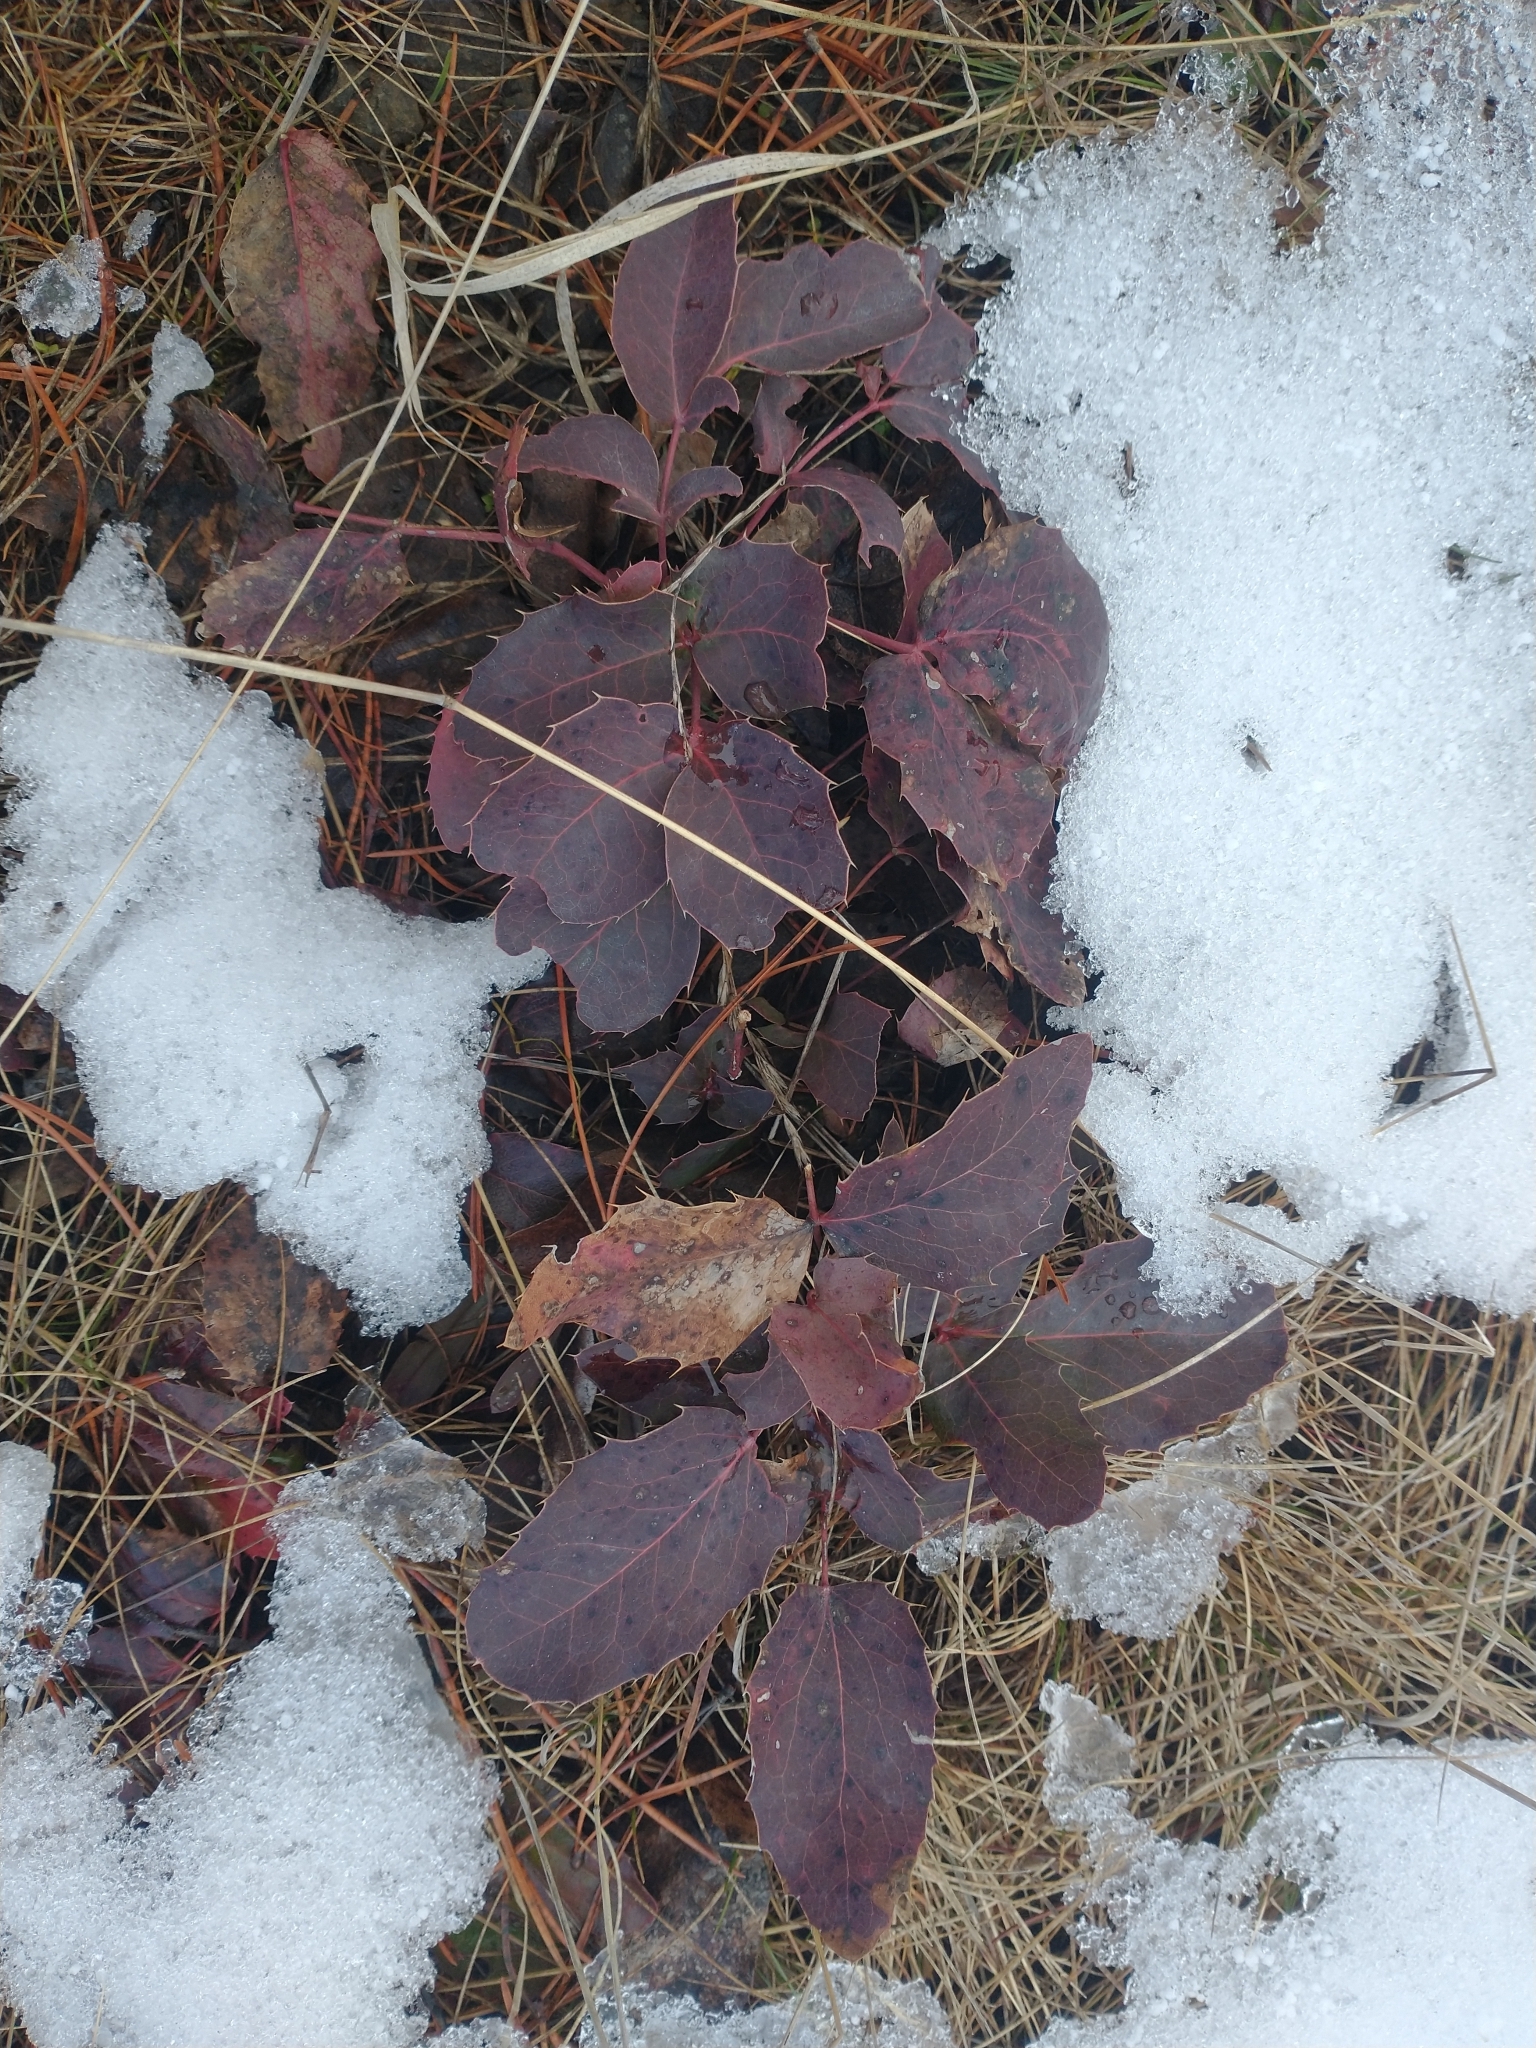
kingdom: Plantae
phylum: Tracheophyta
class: Magnoliopsida
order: Ranunculales
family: Berberidaceae
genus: Mahonia
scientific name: Mahonia repens
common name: Creeping oregon-grape
